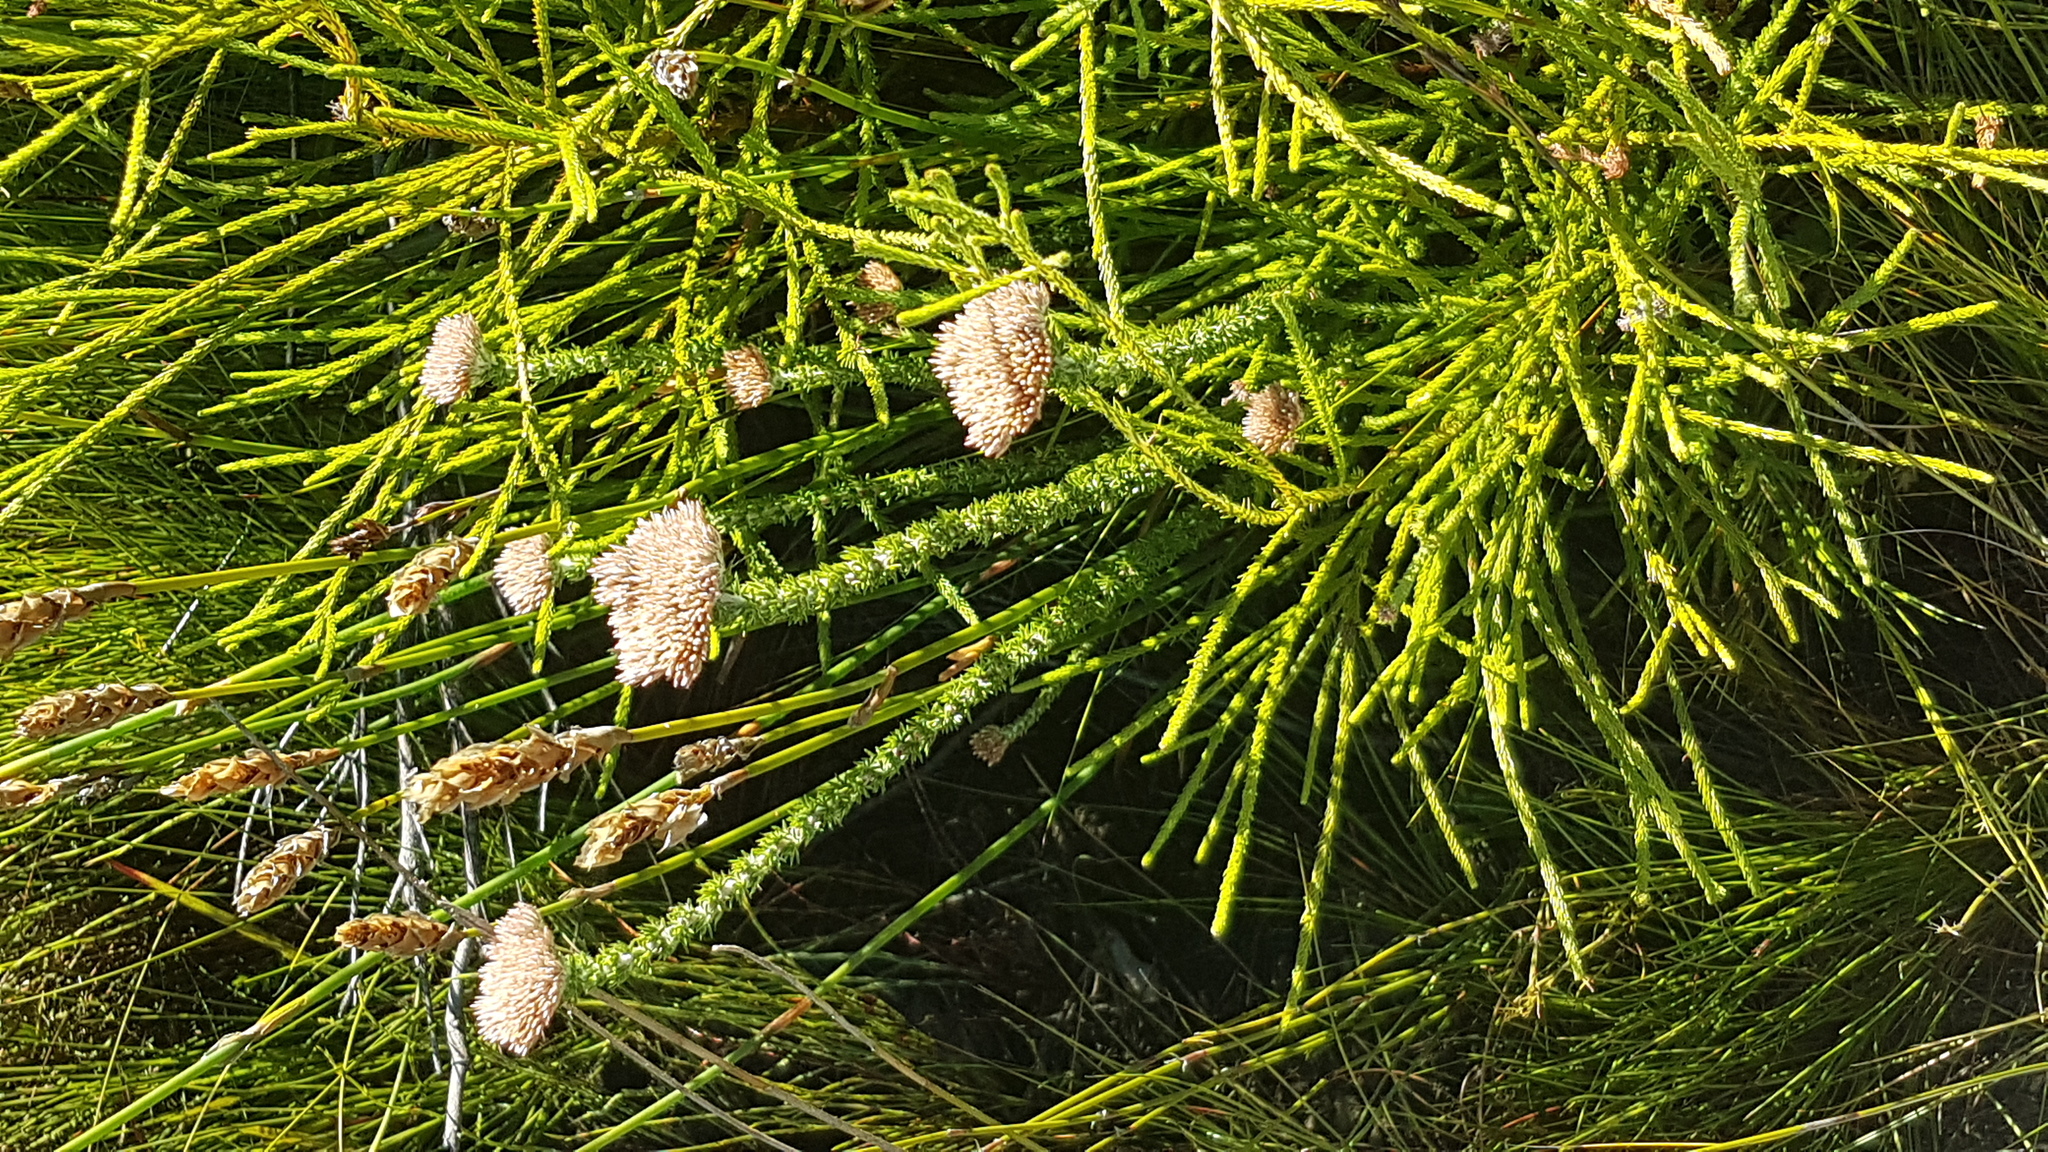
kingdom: Plantae
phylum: Tracheophyta
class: Magnoliopsida
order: Asterales
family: Asteraceae
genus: Metalasia
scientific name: Metalasia pungens
